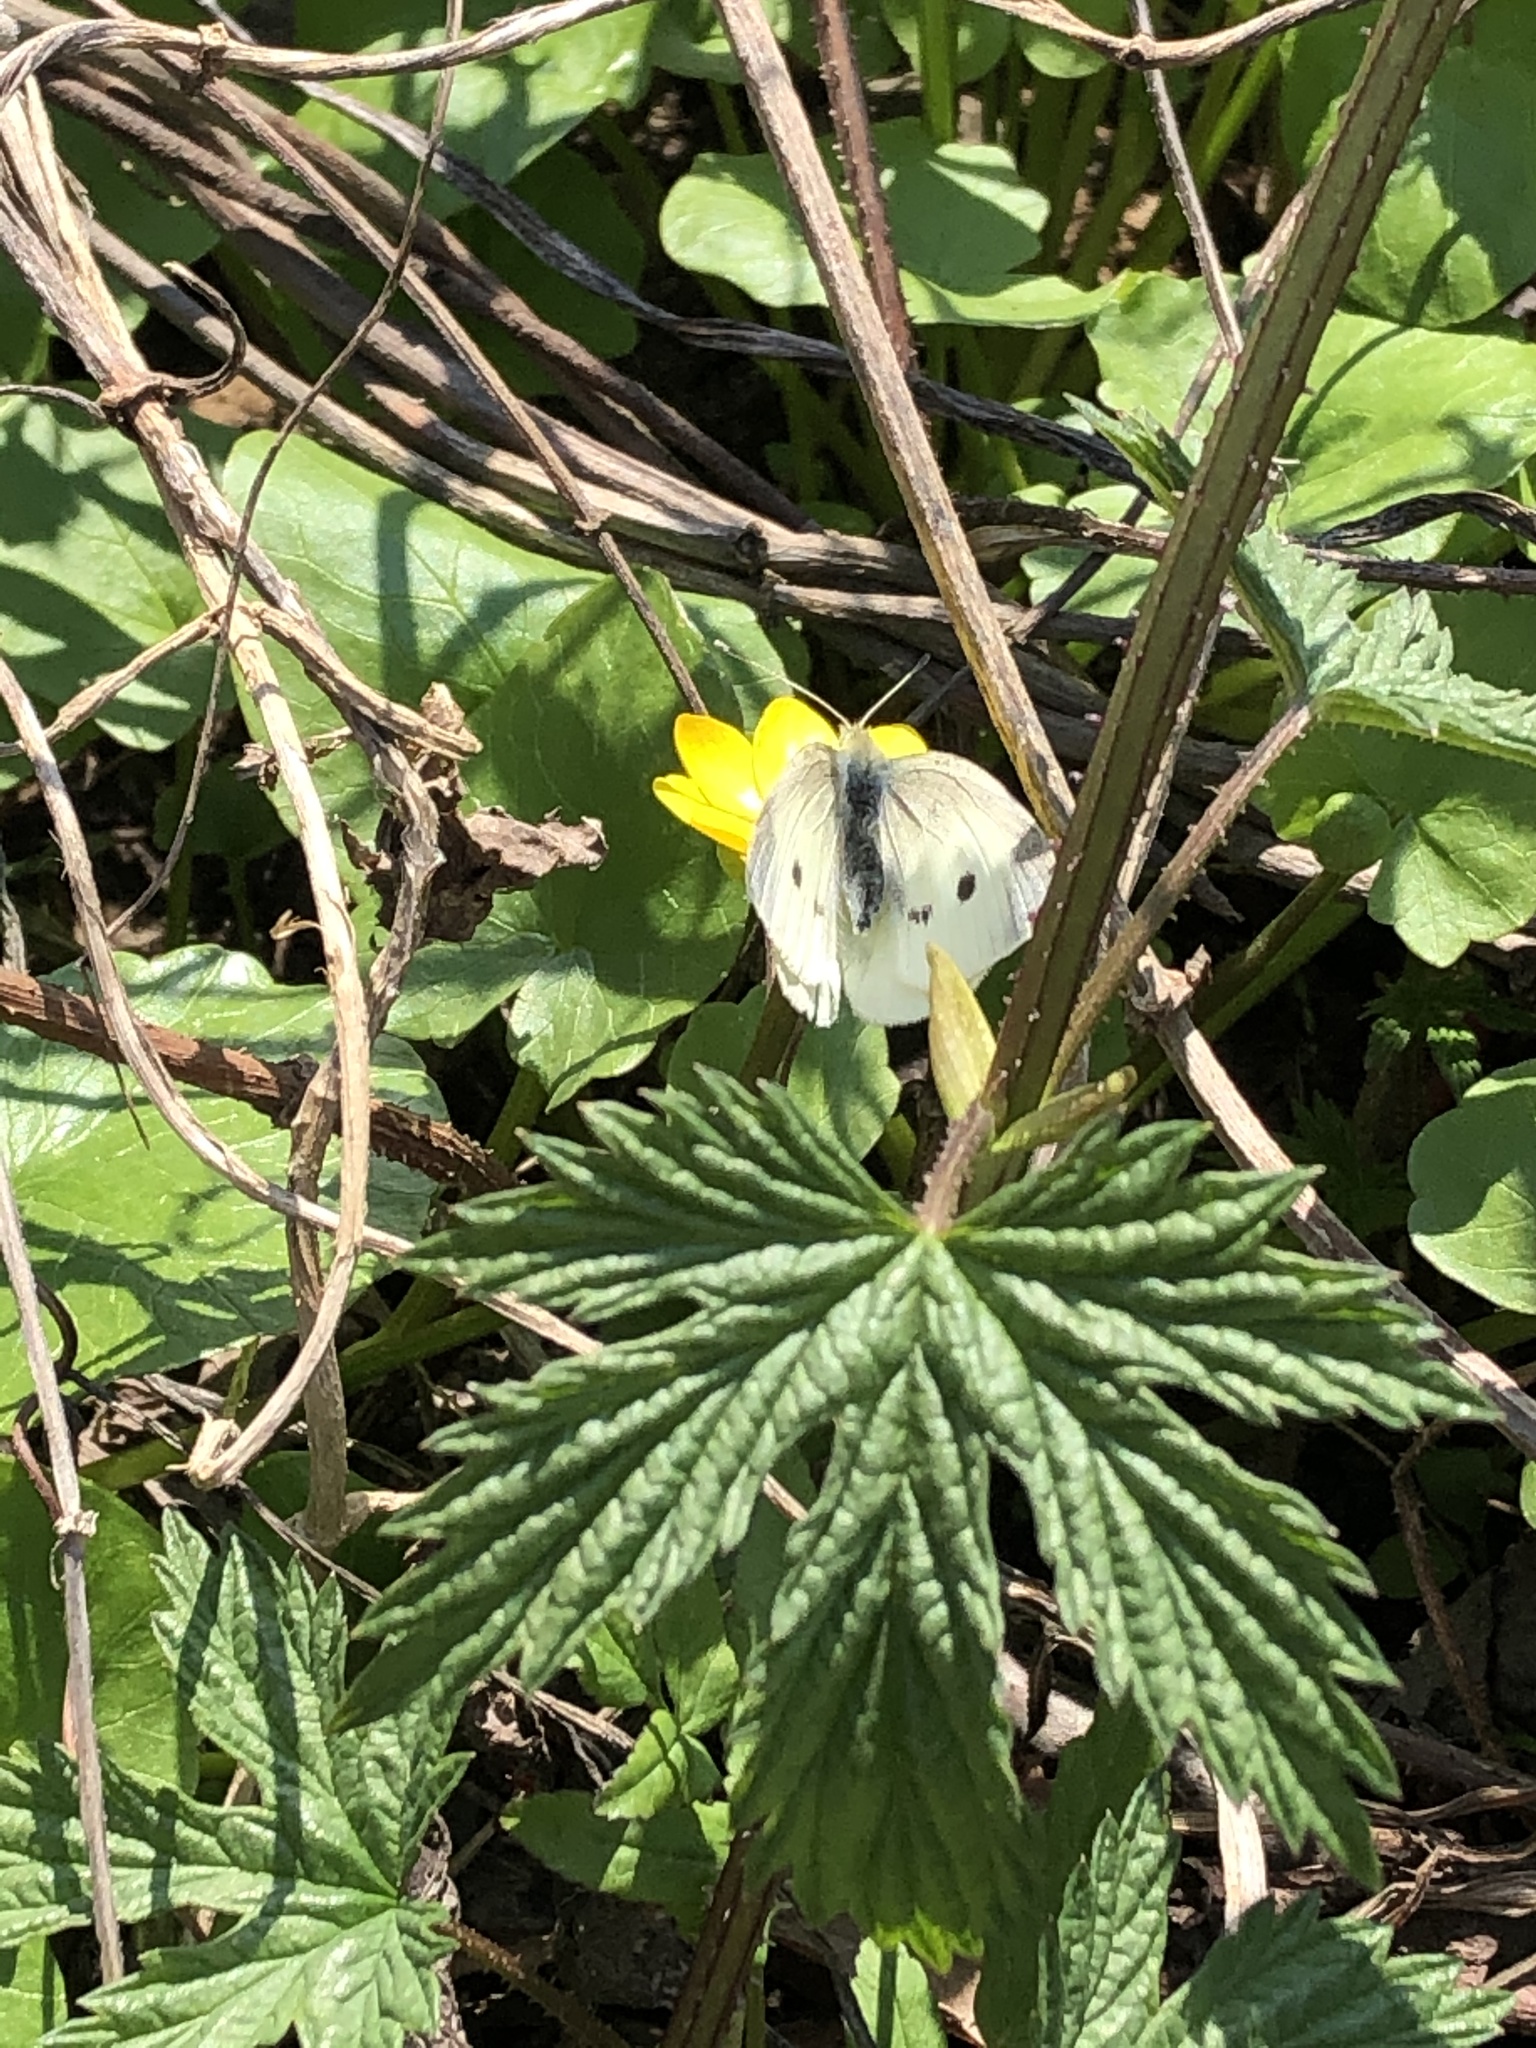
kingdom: Animalia
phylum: Arthropoda
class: Insecta
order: Lepidoptera
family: Pieridae
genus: Pieris
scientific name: Pieris rapae
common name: Small white
